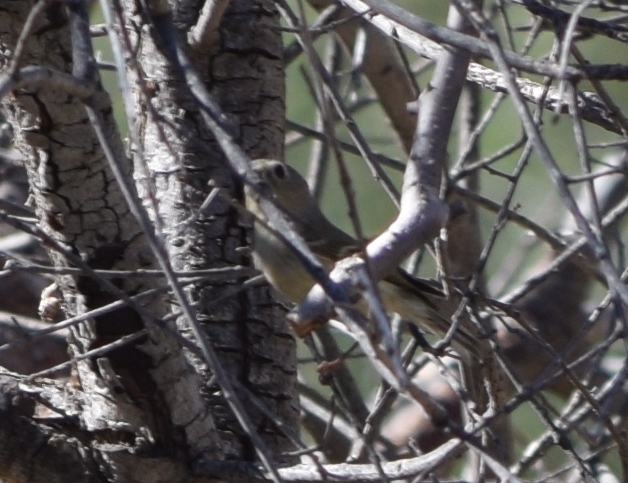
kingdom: Animalia
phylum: Chordata
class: Aves
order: Passeriformes
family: Regulidae
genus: Regulus
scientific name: Regulus calendula
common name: Ruby-crowned kinglet
